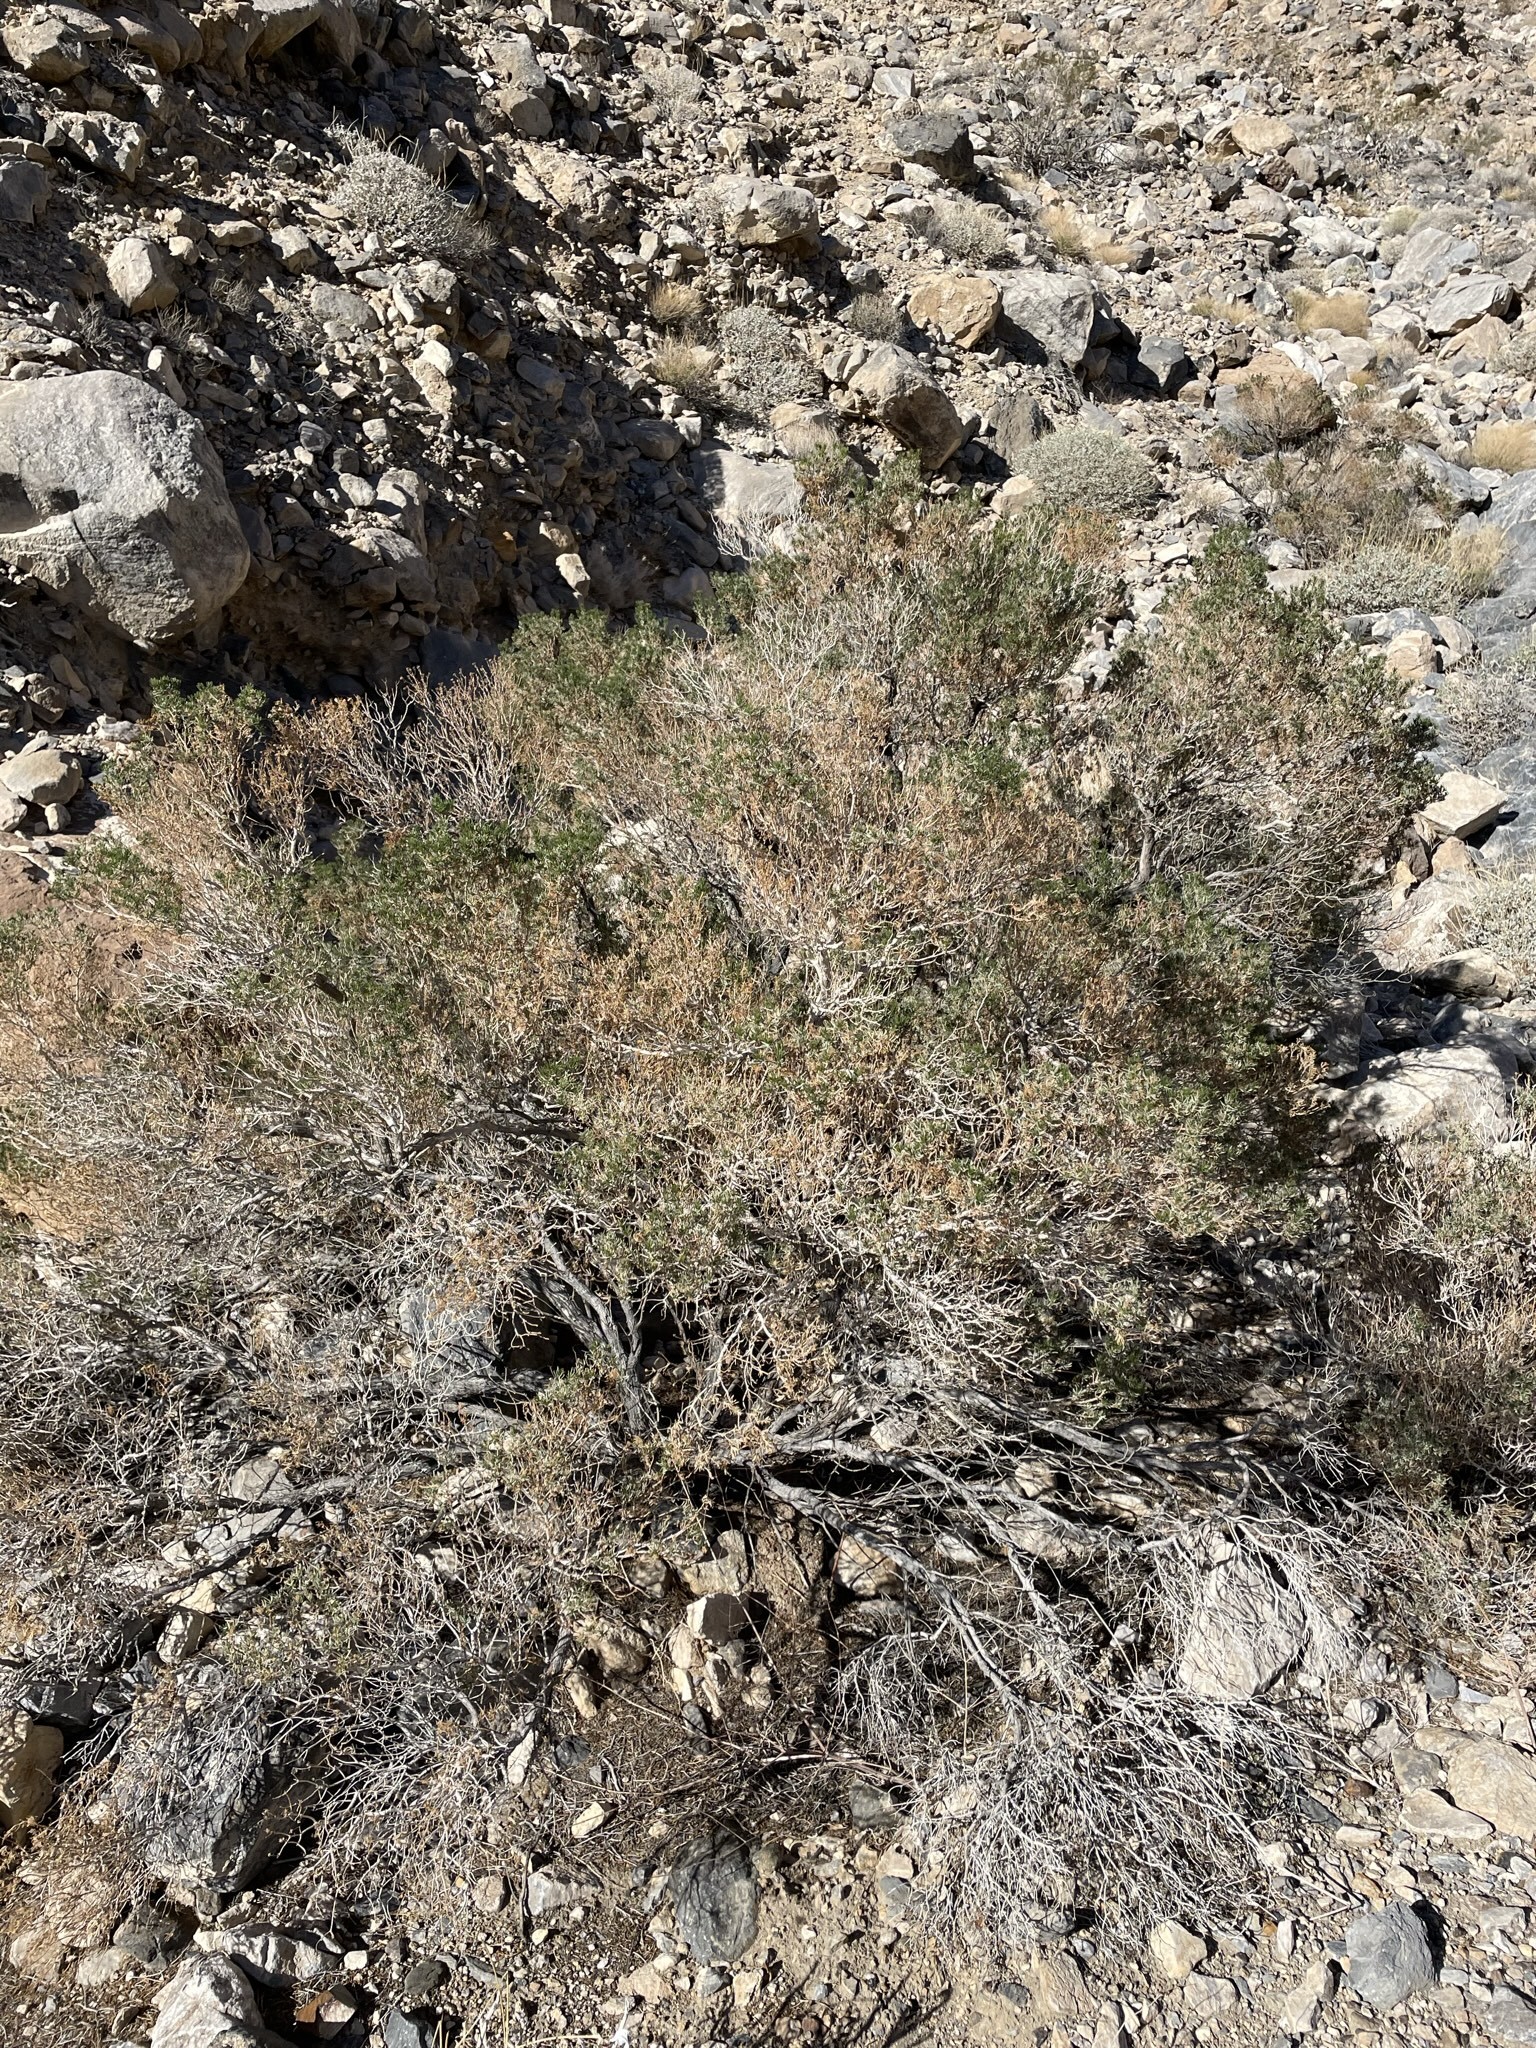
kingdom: Plantae
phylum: Tracheophyta
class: Magnoliopsida
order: Asterales
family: Asteraceae
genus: Peucephyllum
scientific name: Peucephyllum schottii
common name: Pygmy-cedar
